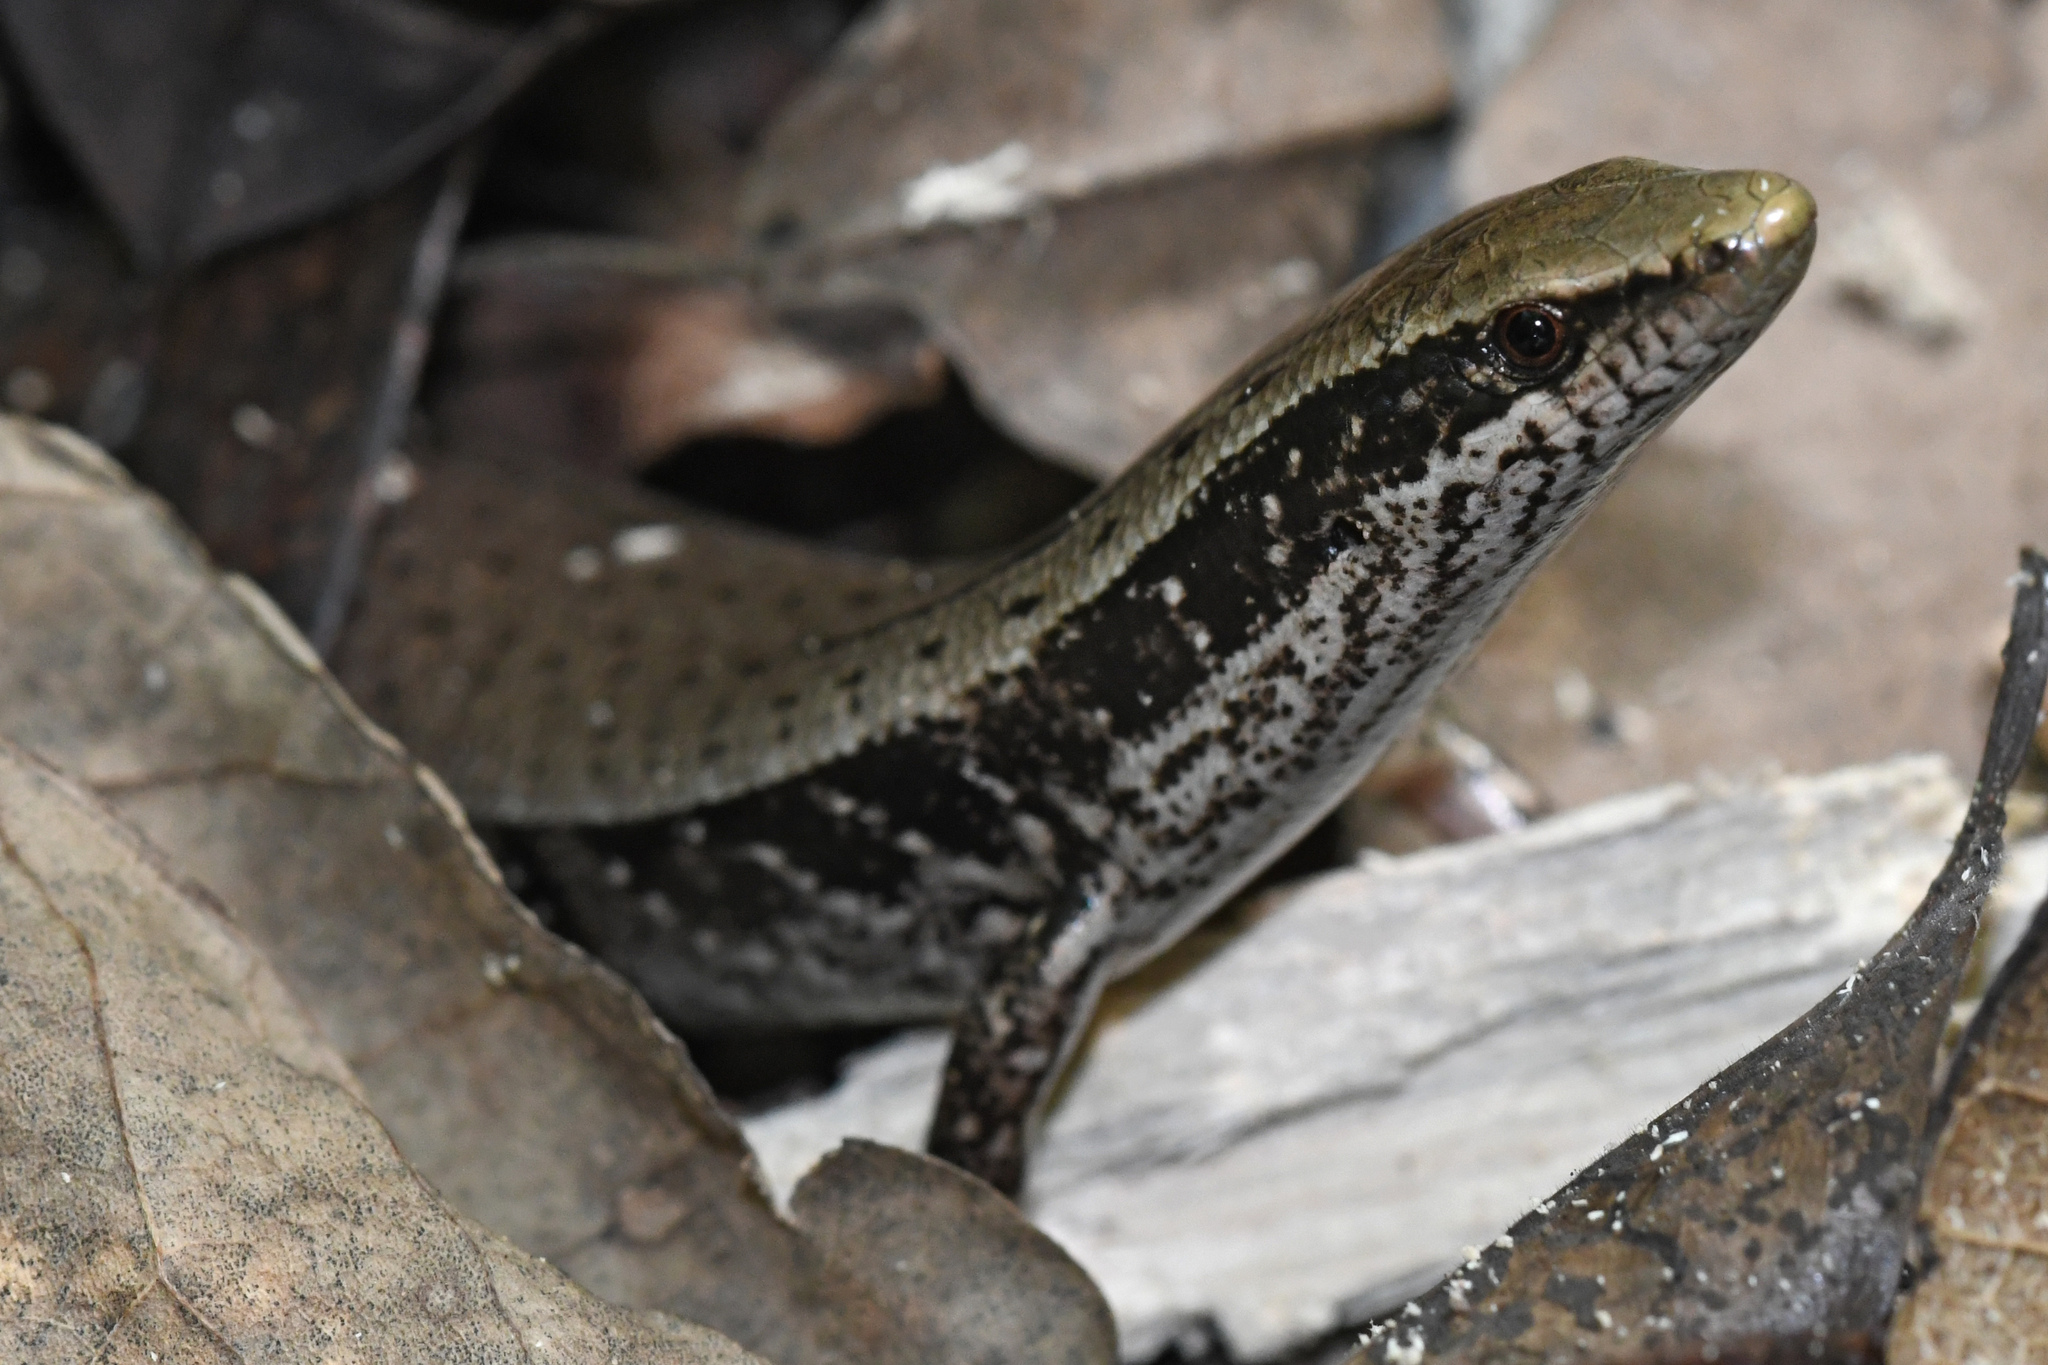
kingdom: Animalia
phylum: Chordata
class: Squamata
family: Diploglossidae
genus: Celestus
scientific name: Celestus costatus
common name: Common hispaniolan galliwasp
